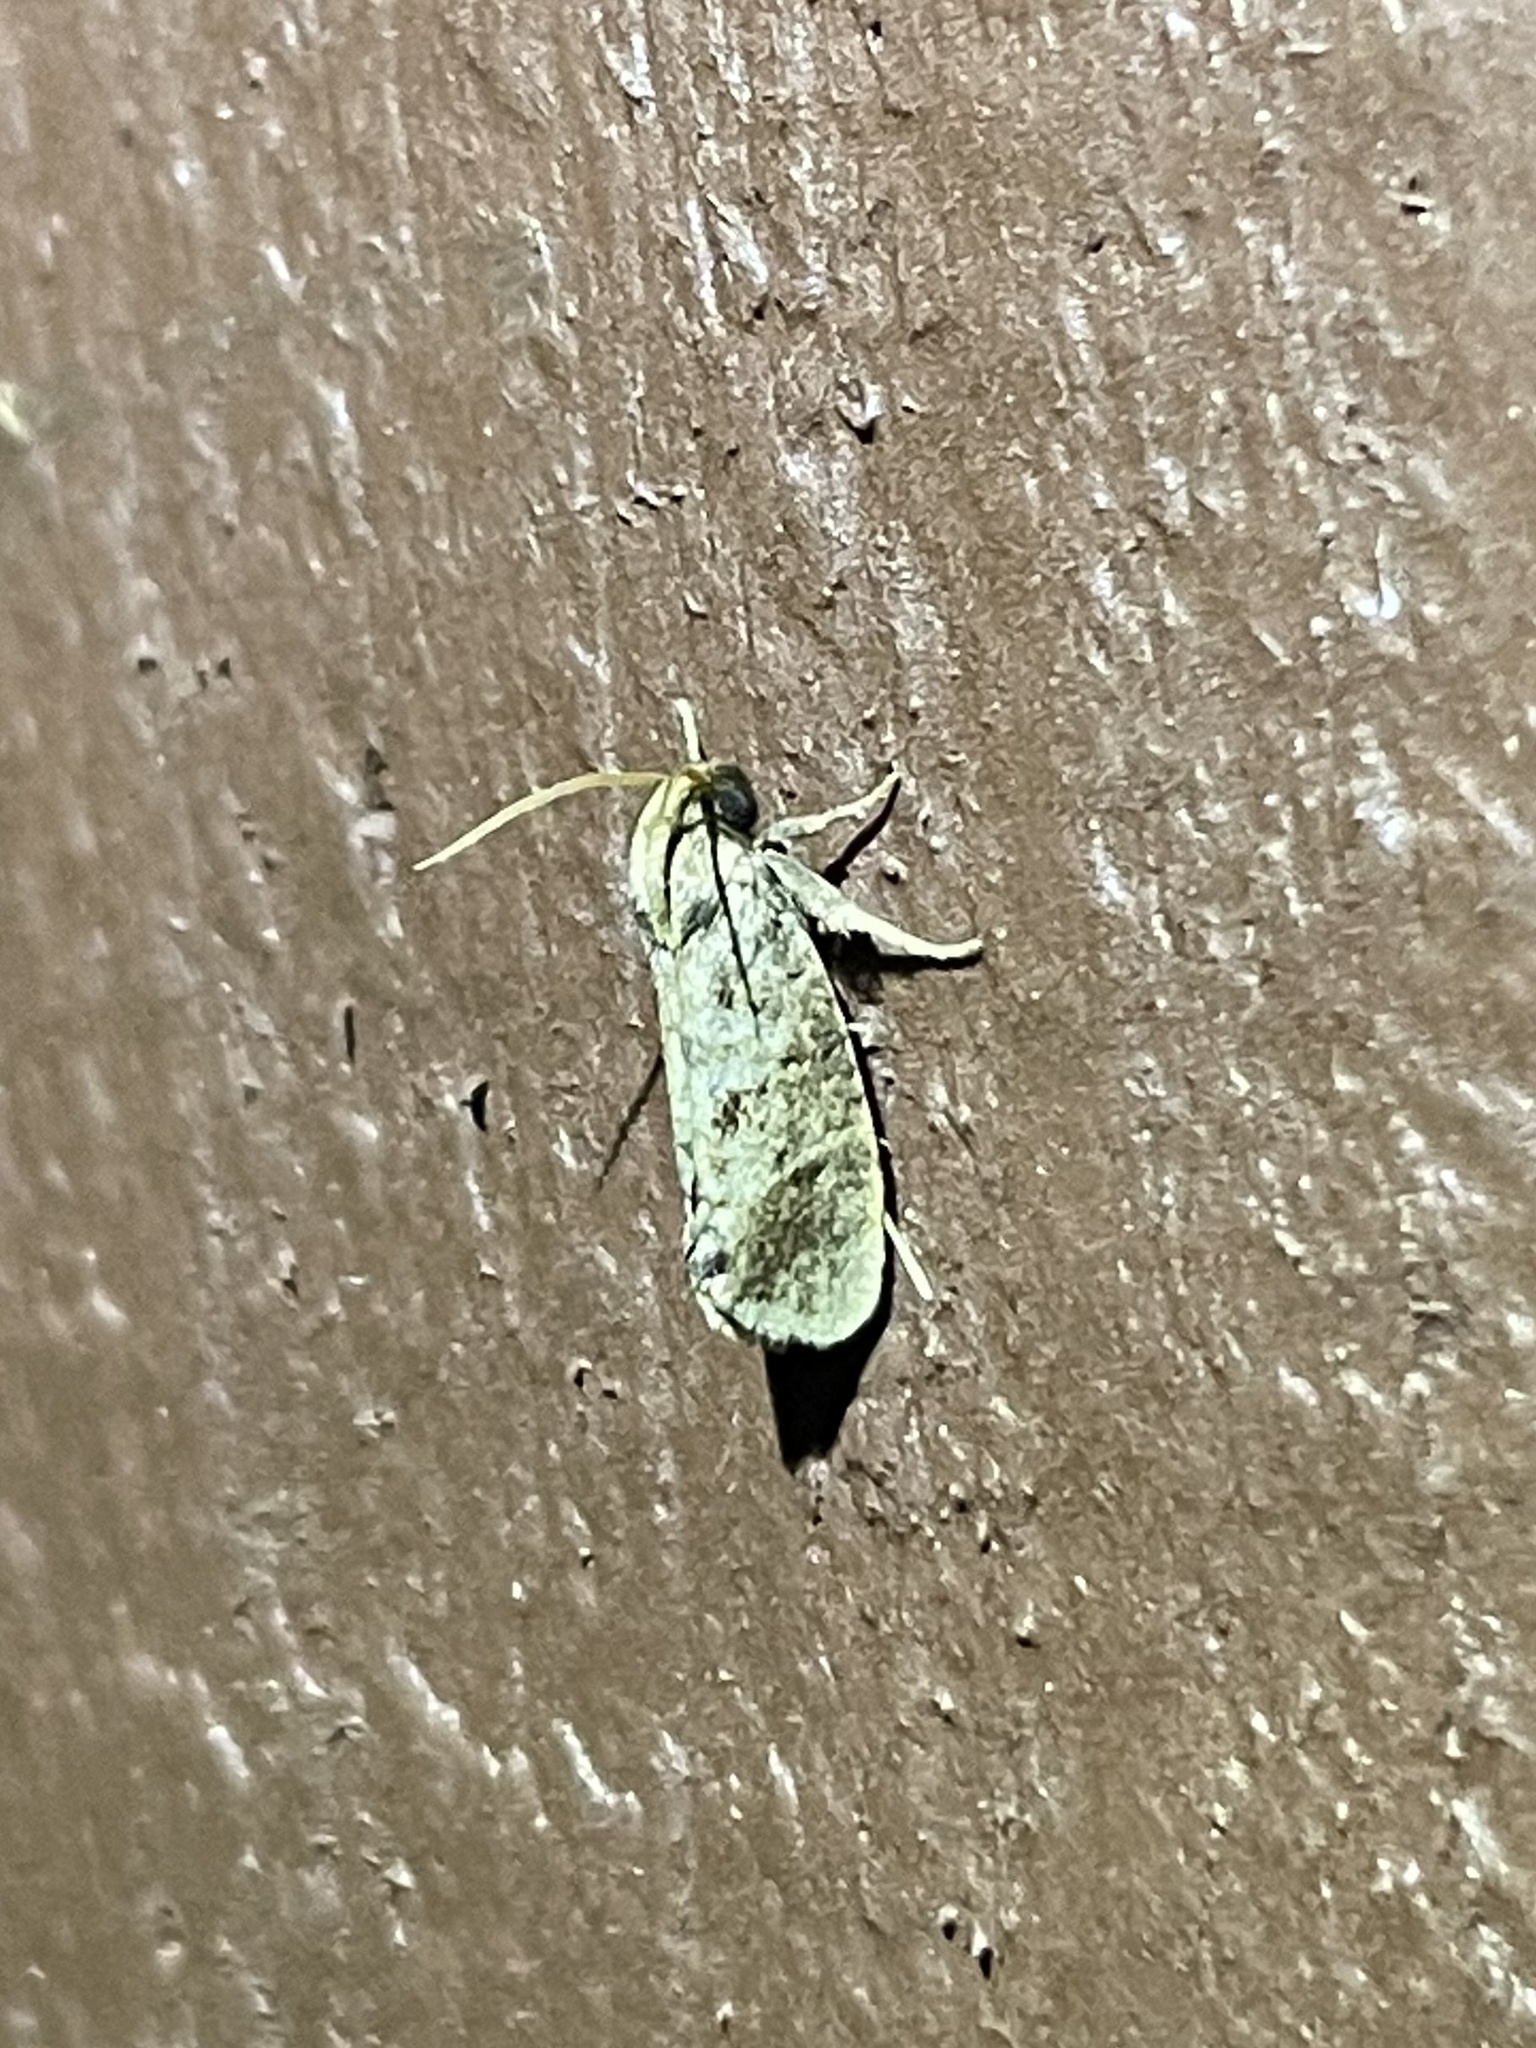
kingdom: Animalia
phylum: Arthropoda
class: Insecta
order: Lepidoptera
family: Tineidae
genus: Acrolophus
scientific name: Acrolophus texanella
